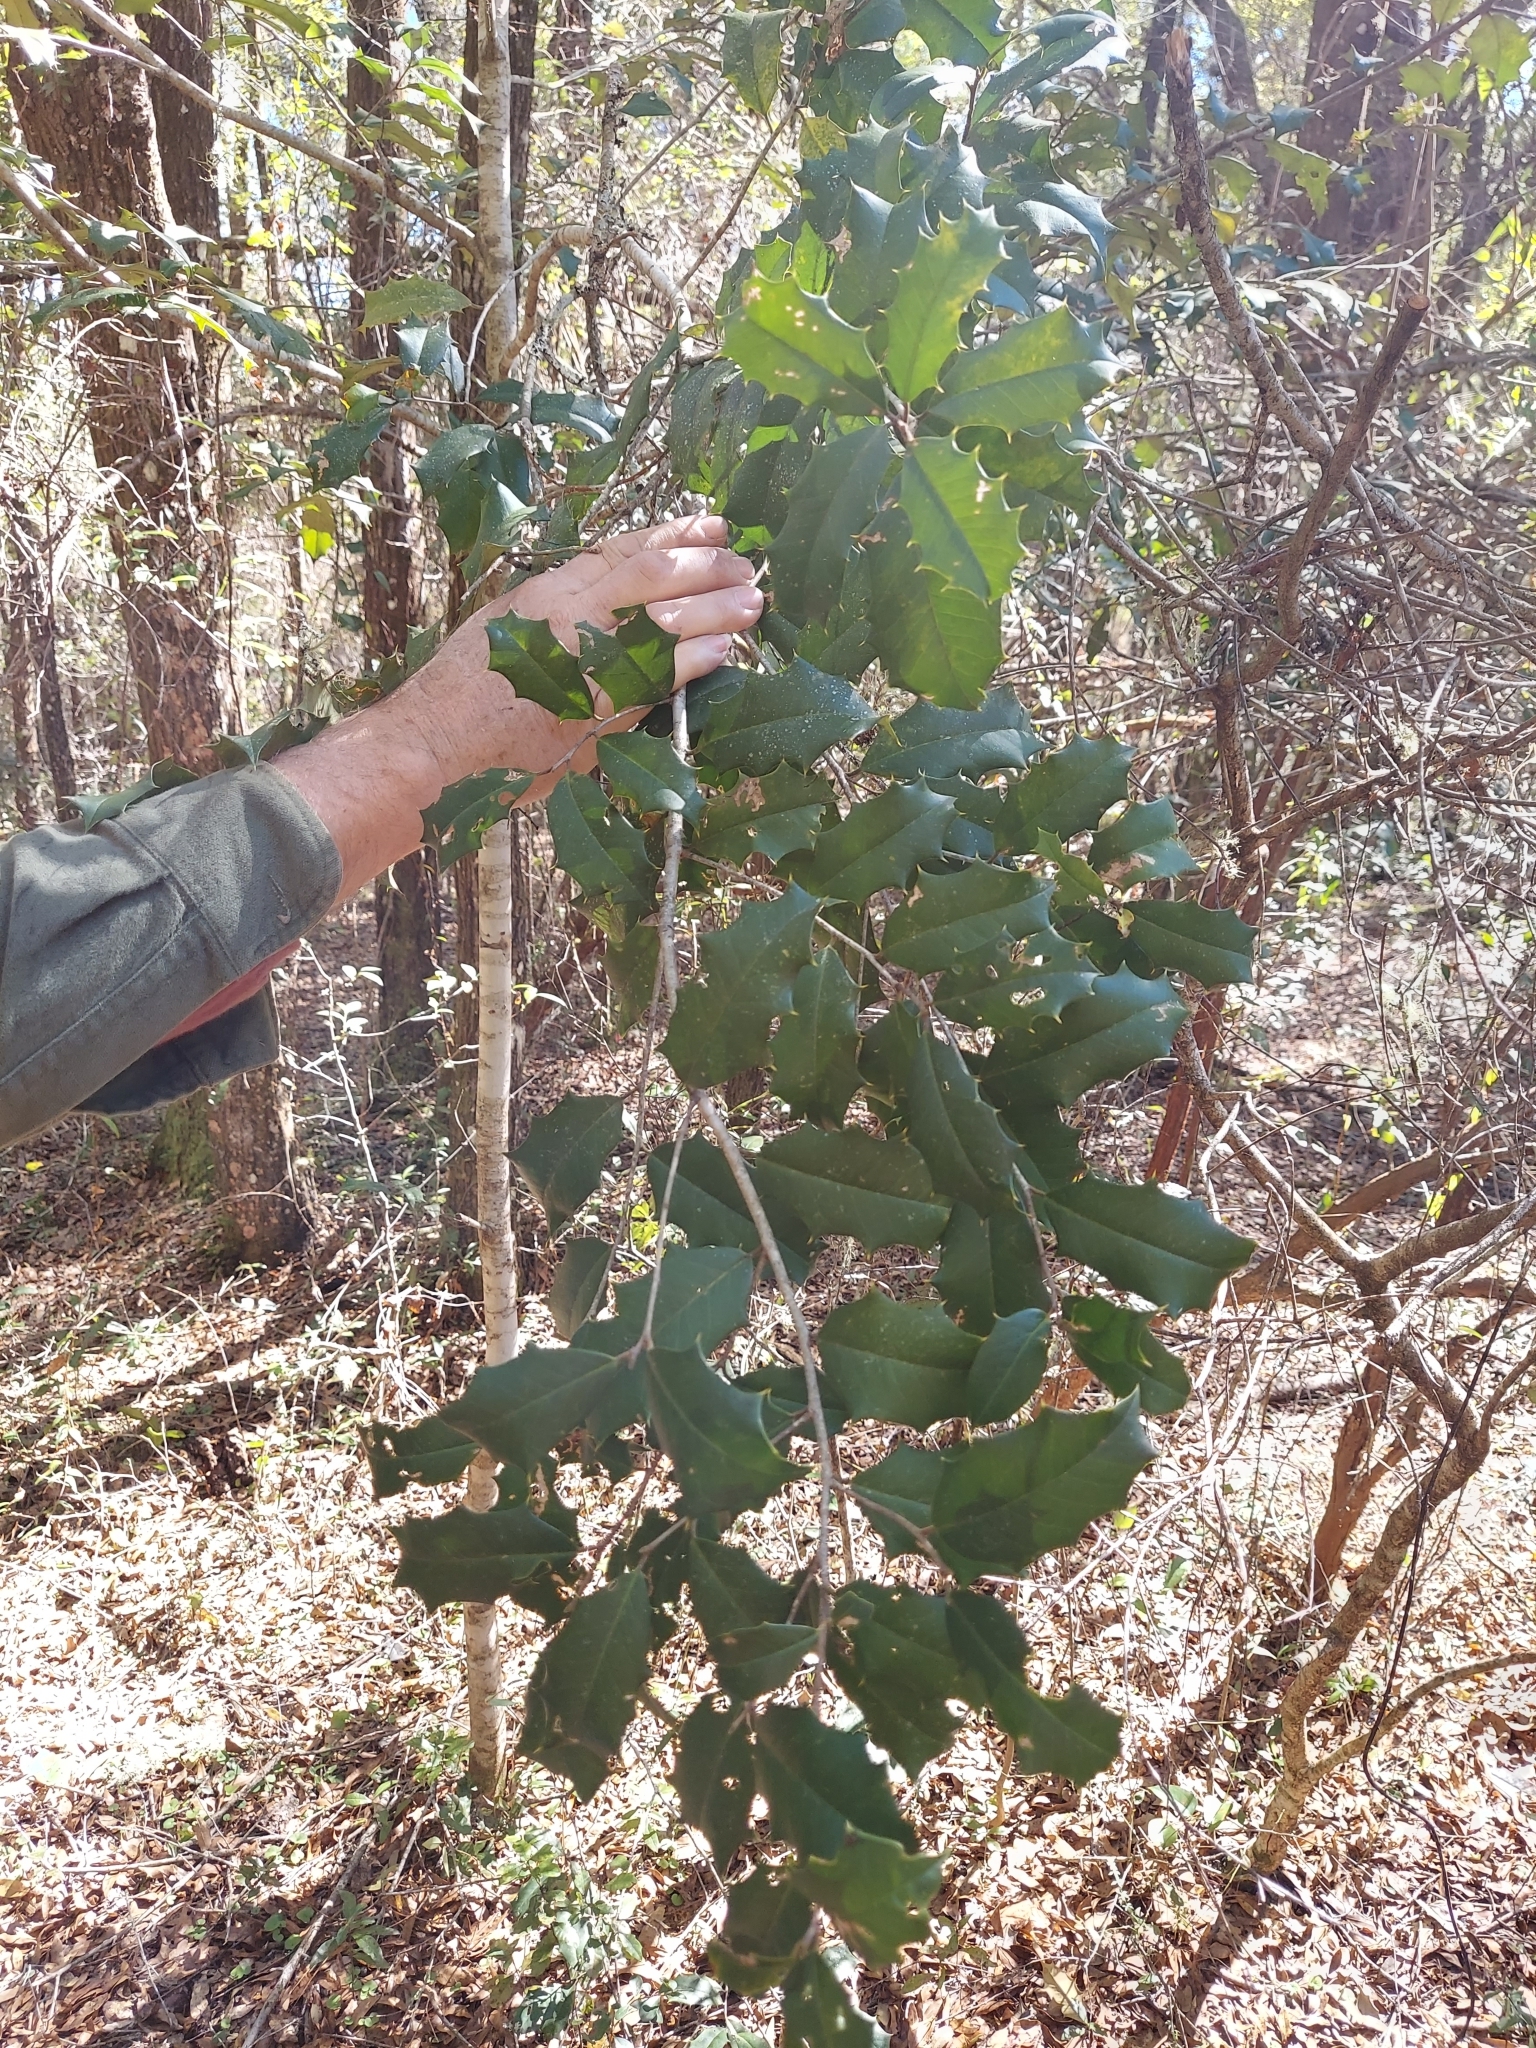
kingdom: Plantae
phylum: Tracheophyta
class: Magnoliopsida
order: Aquifoliales
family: Aquifoliaceae
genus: Ilex
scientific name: Ilex opaca
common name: American holly
